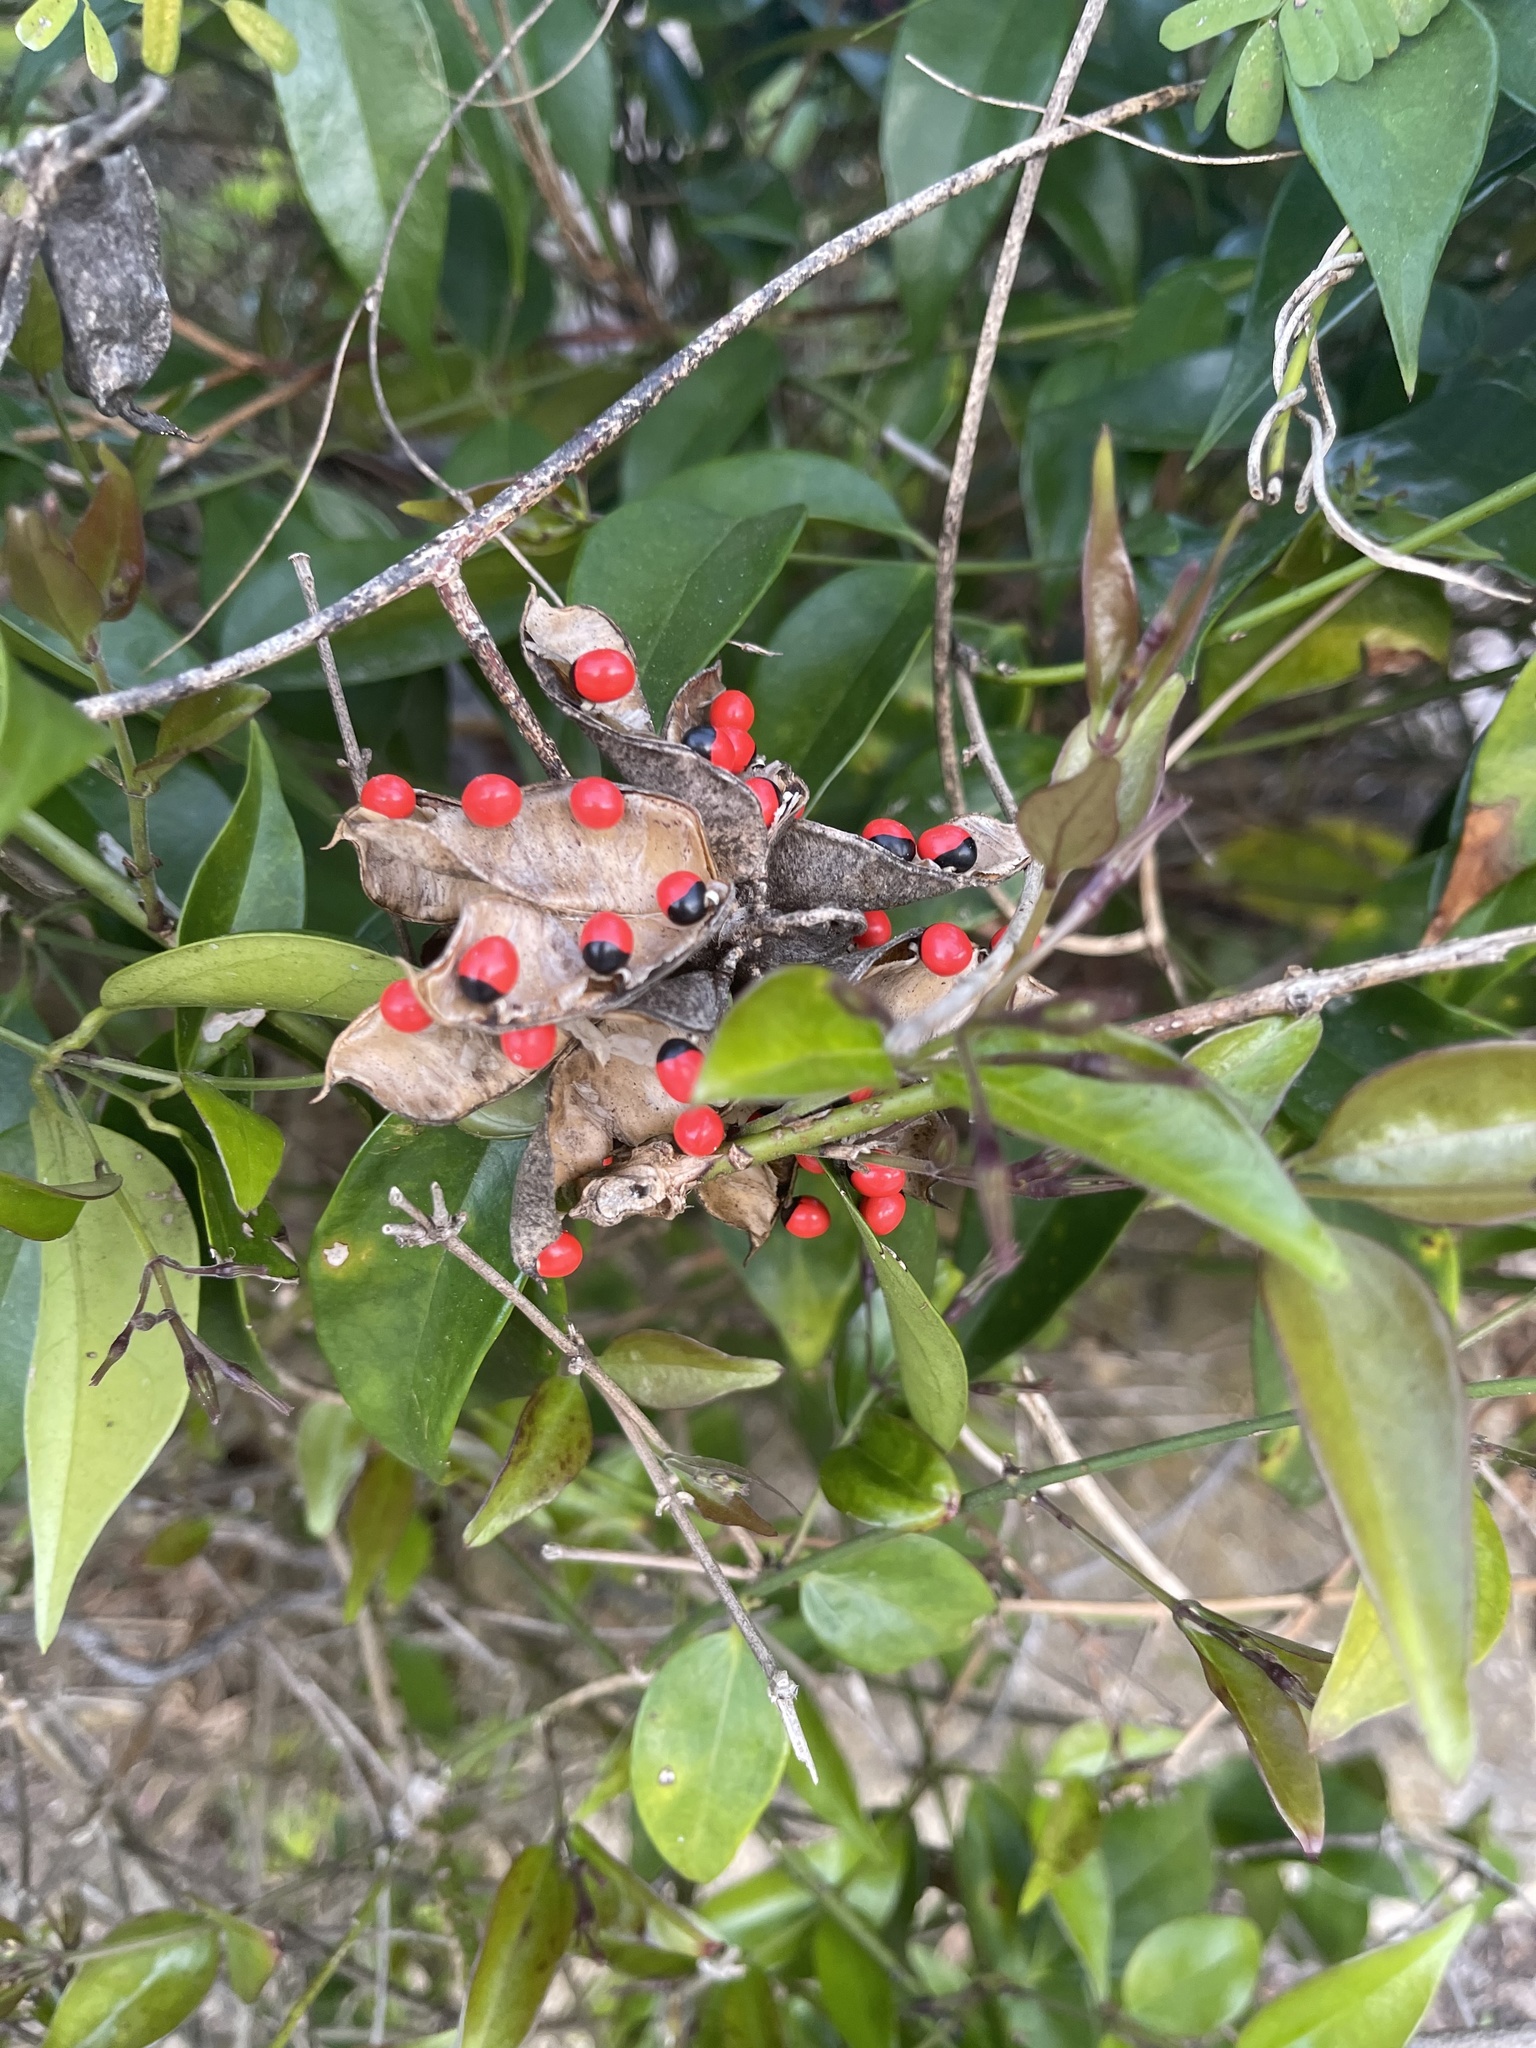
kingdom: Plantae
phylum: Tracheophyta
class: Magnoliopsida
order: Fabales
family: Fabaceae
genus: Abrus
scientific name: Abrus precatorius
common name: Rosarypea
